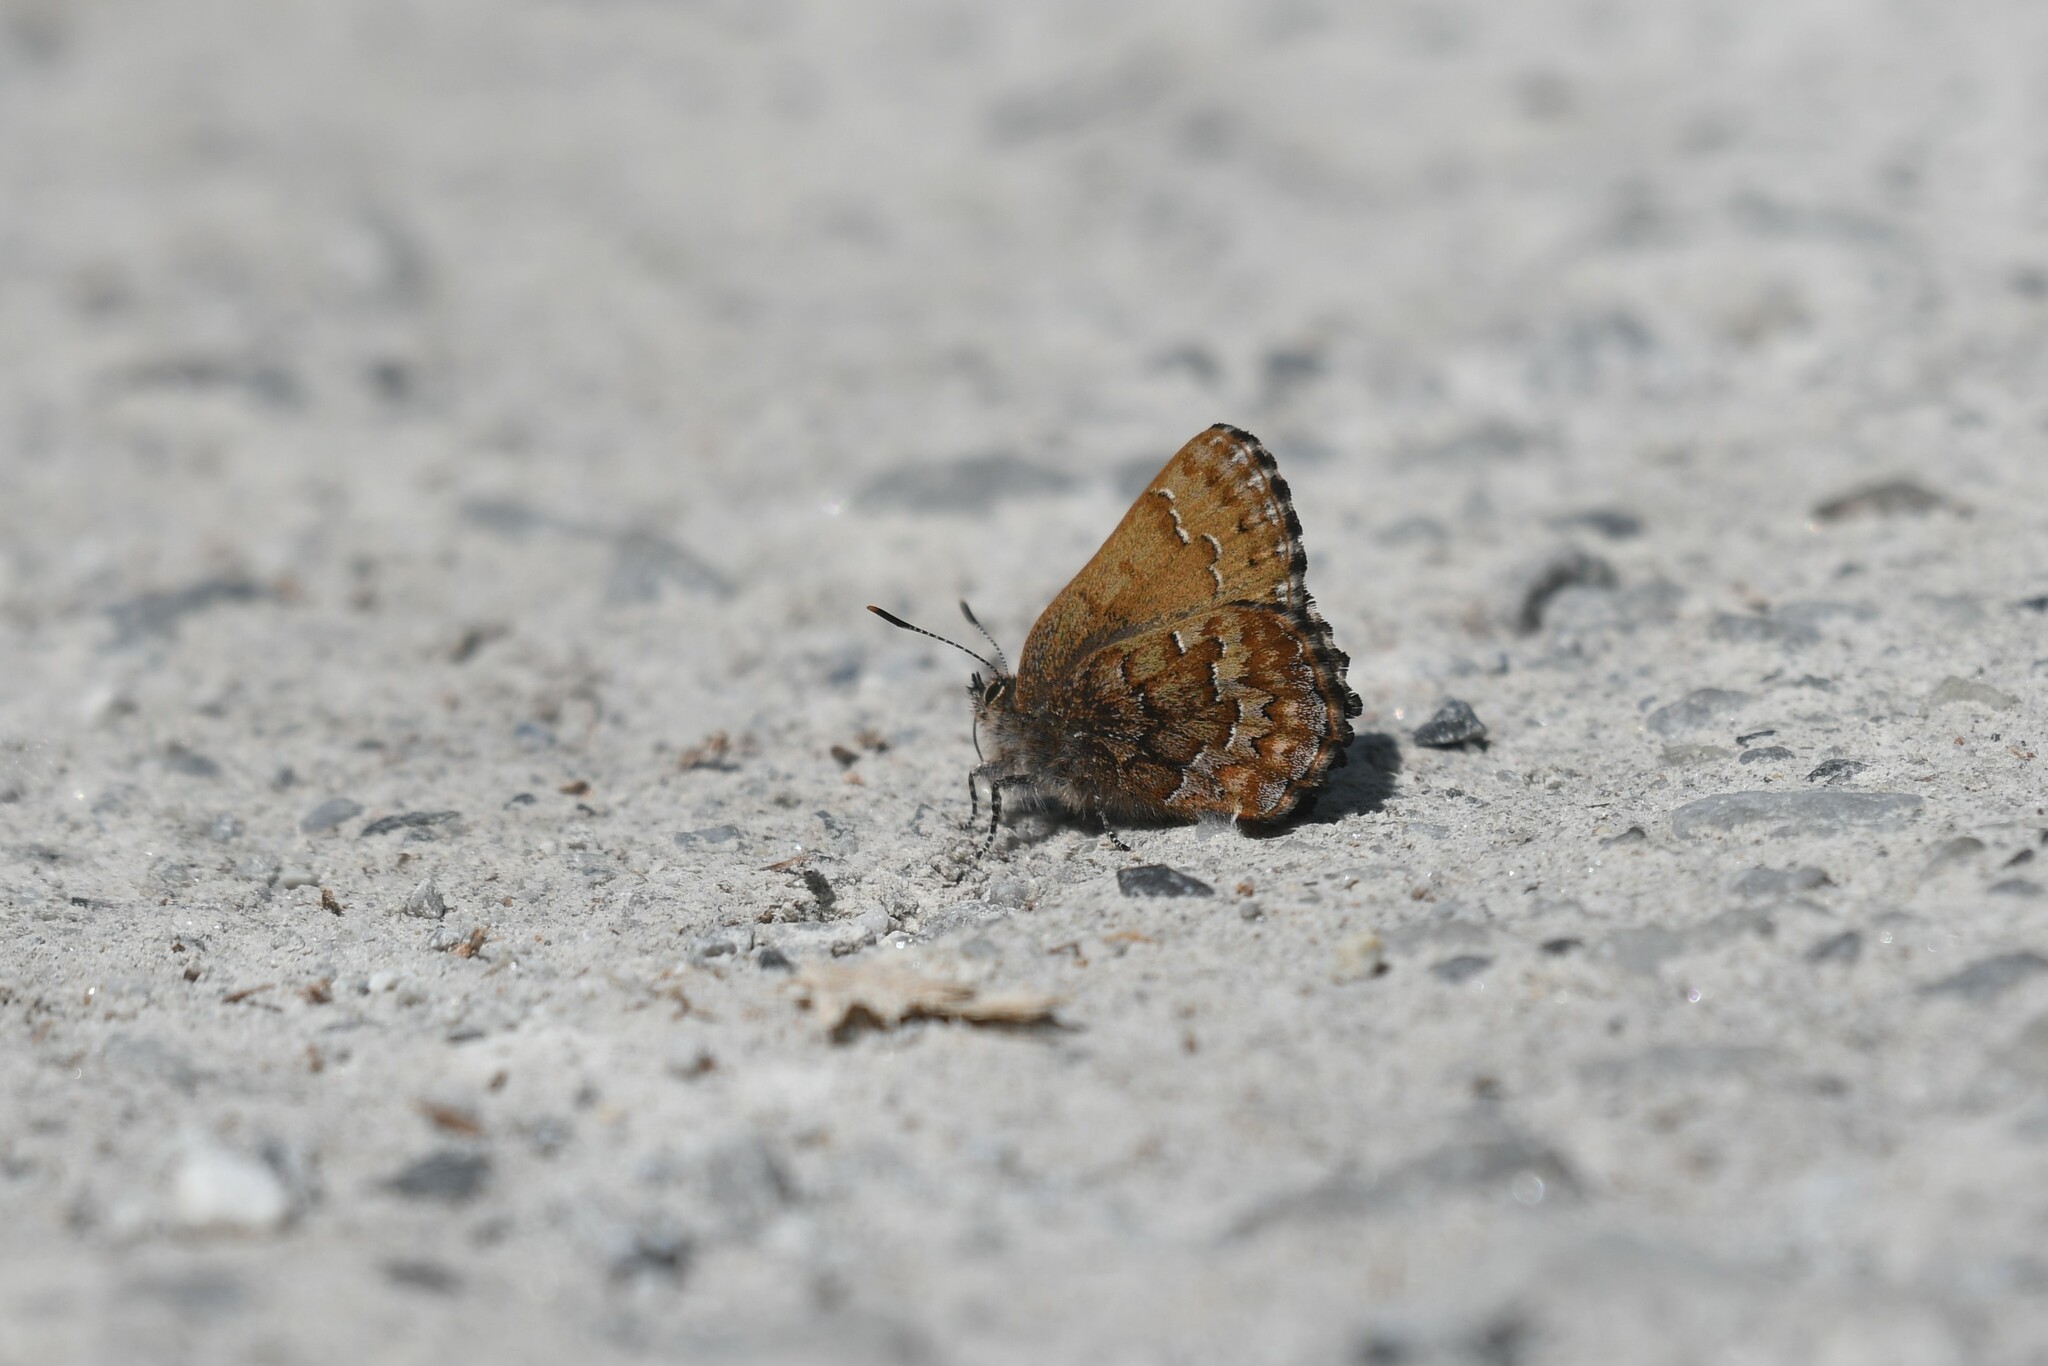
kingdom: Animalia
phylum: Arthropoda
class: Insecta
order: Lepidoptera
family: Lycaenidae
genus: Incisalia
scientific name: Incisalia niphon
